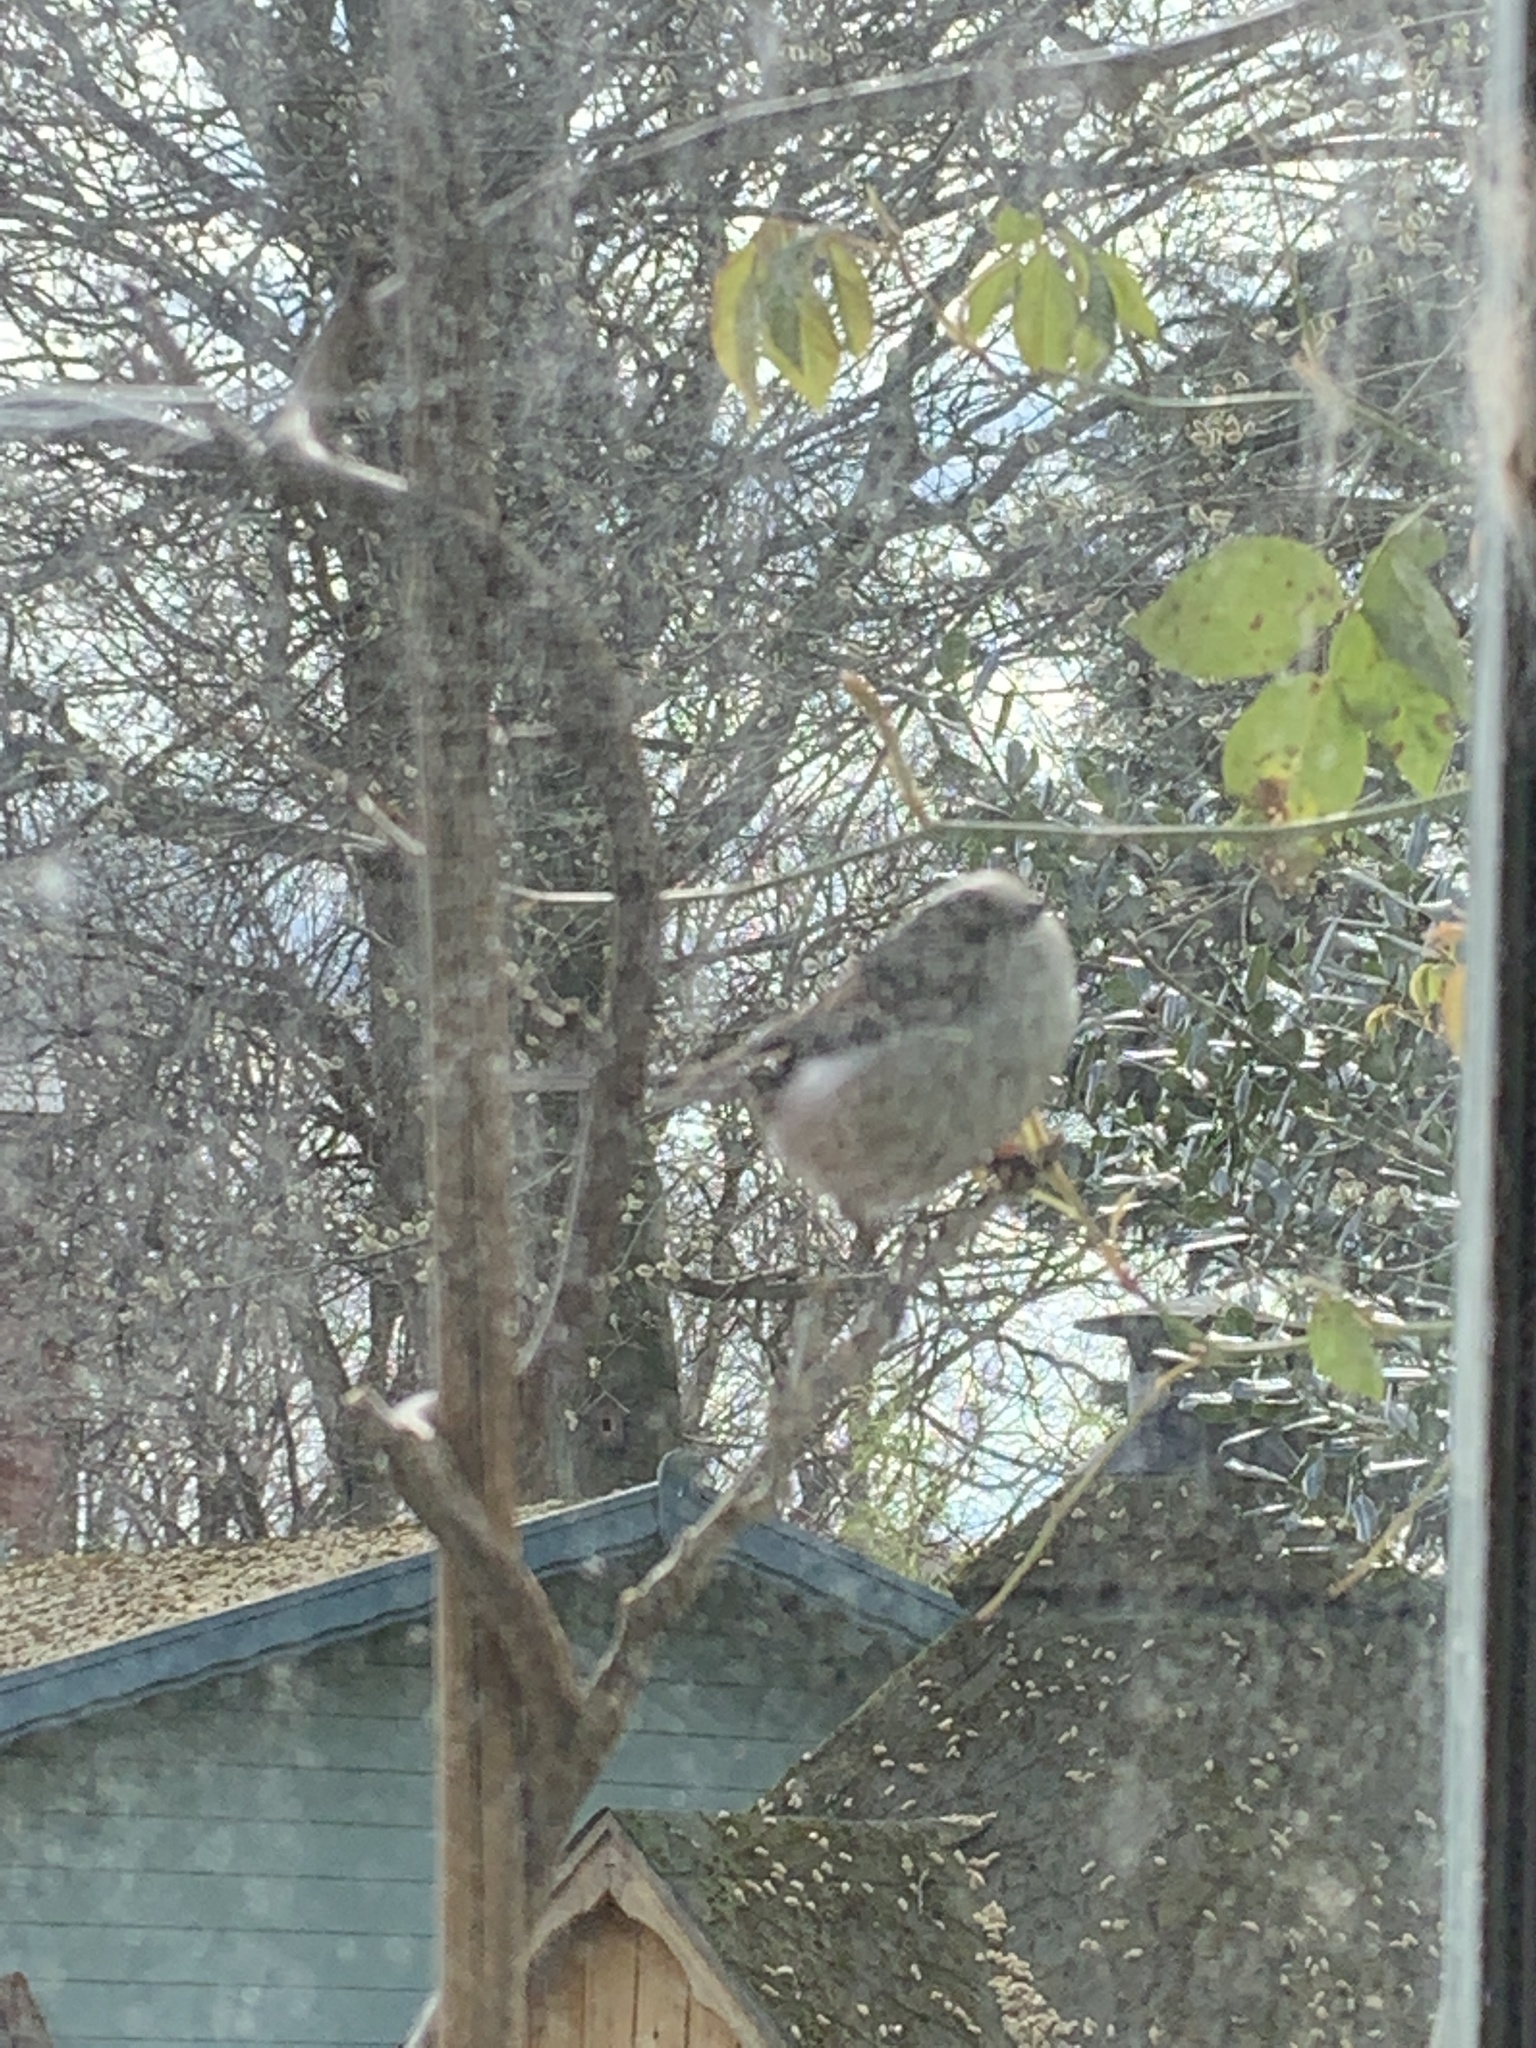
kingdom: Animalia
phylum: Chordata
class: Aves
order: Passeriformes
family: Aegithalidae
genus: Aegithalos
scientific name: Aegithalos caudatus
